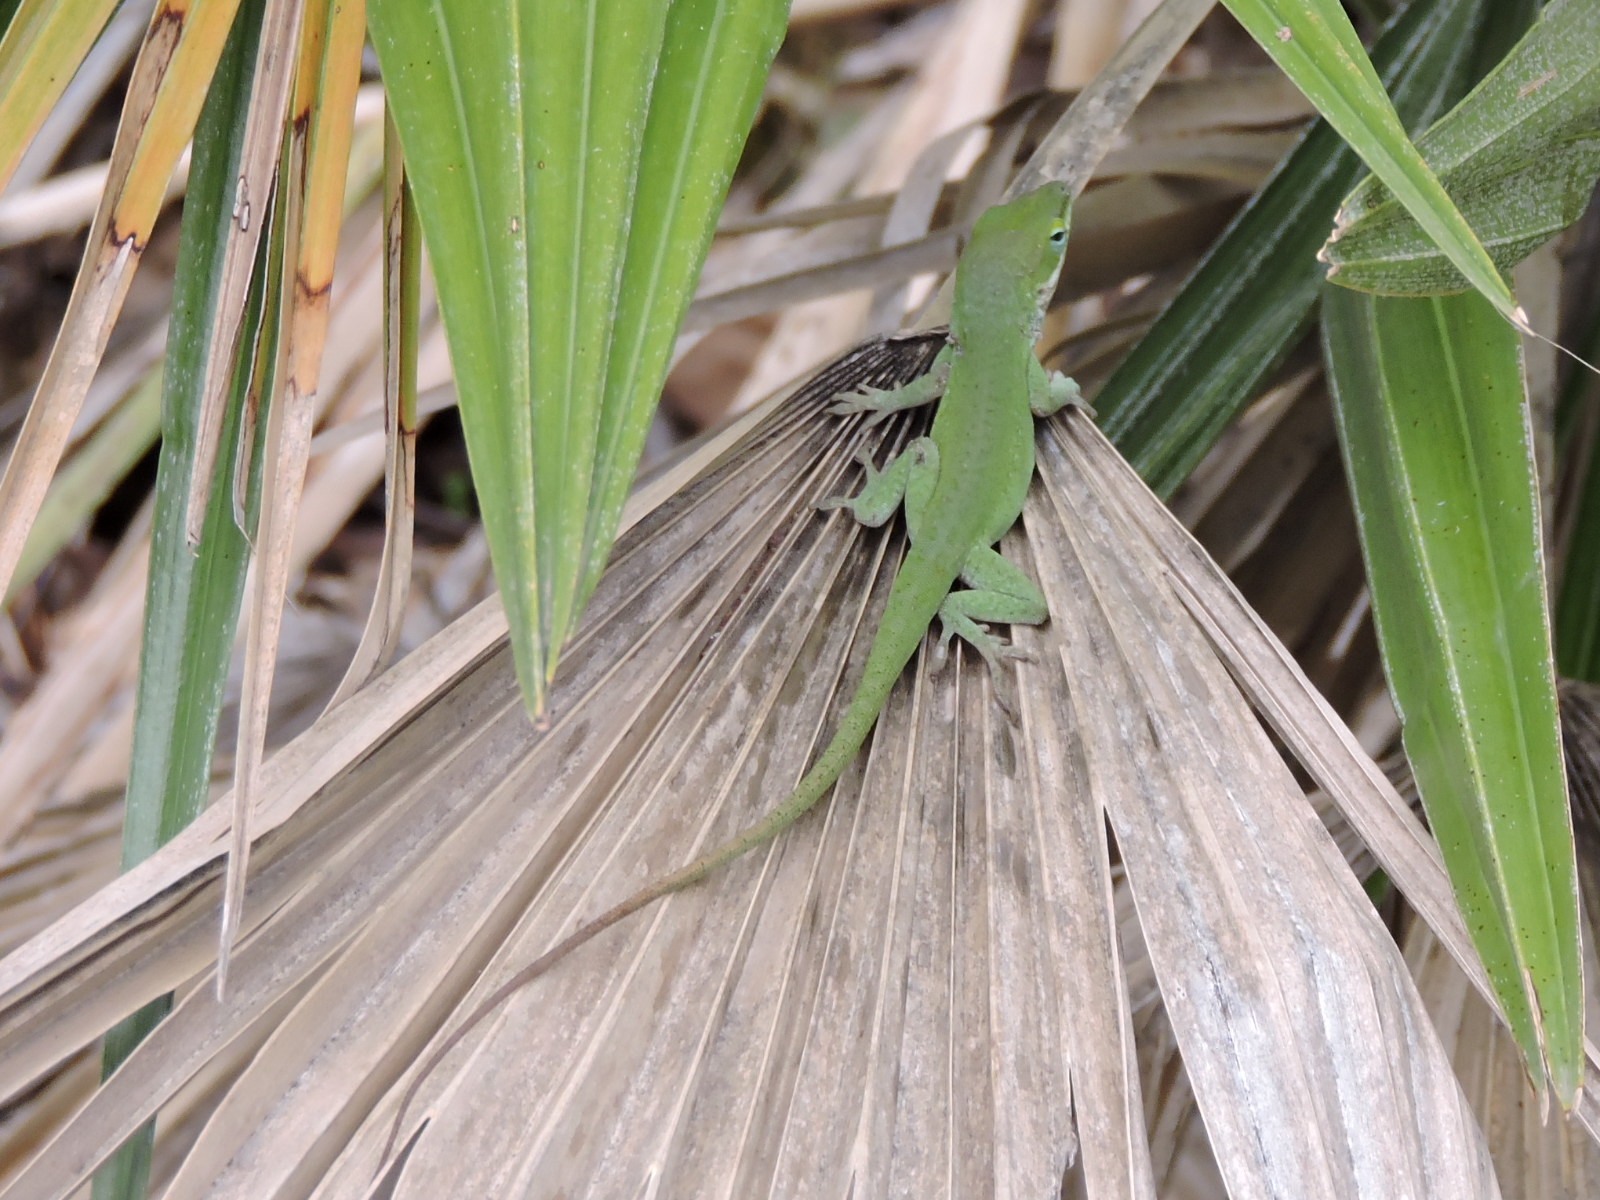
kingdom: Animalia
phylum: Chordata
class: Squamata
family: Dactyloidae
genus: Anolis
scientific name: Anolis carolinensis
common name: Green anole
